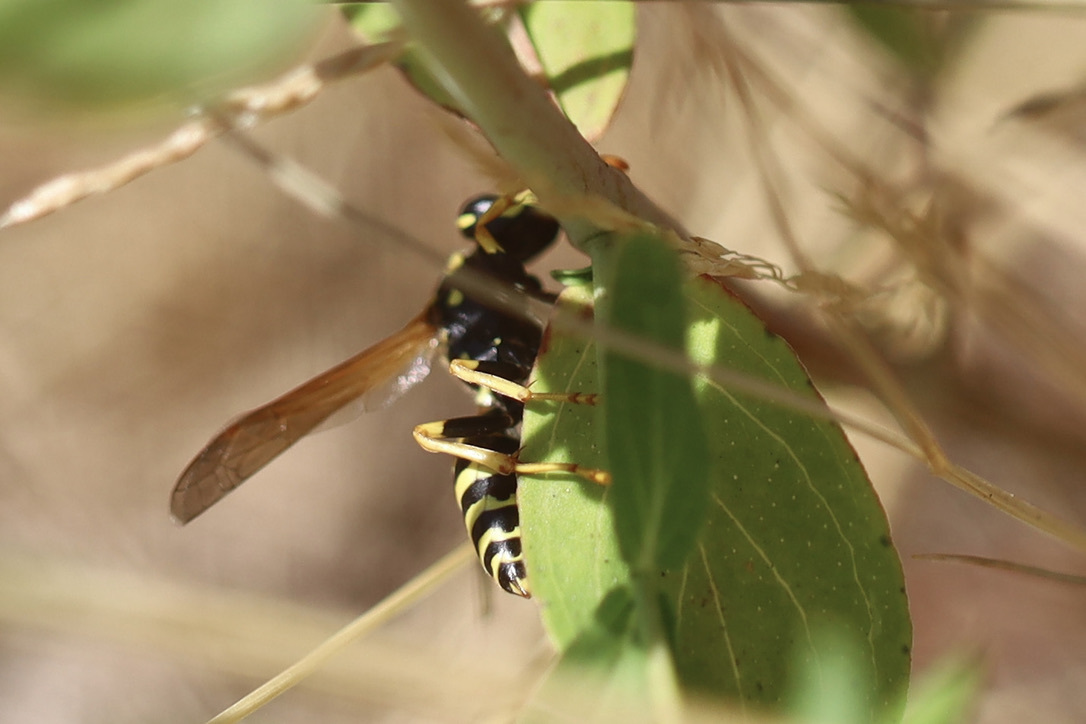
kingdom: Animalia
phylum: Arthropoda
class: Insecta
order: Hymenoptera
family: Eumenidae
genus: Polistes
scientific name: Polistes dominula
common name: Paper wasp
